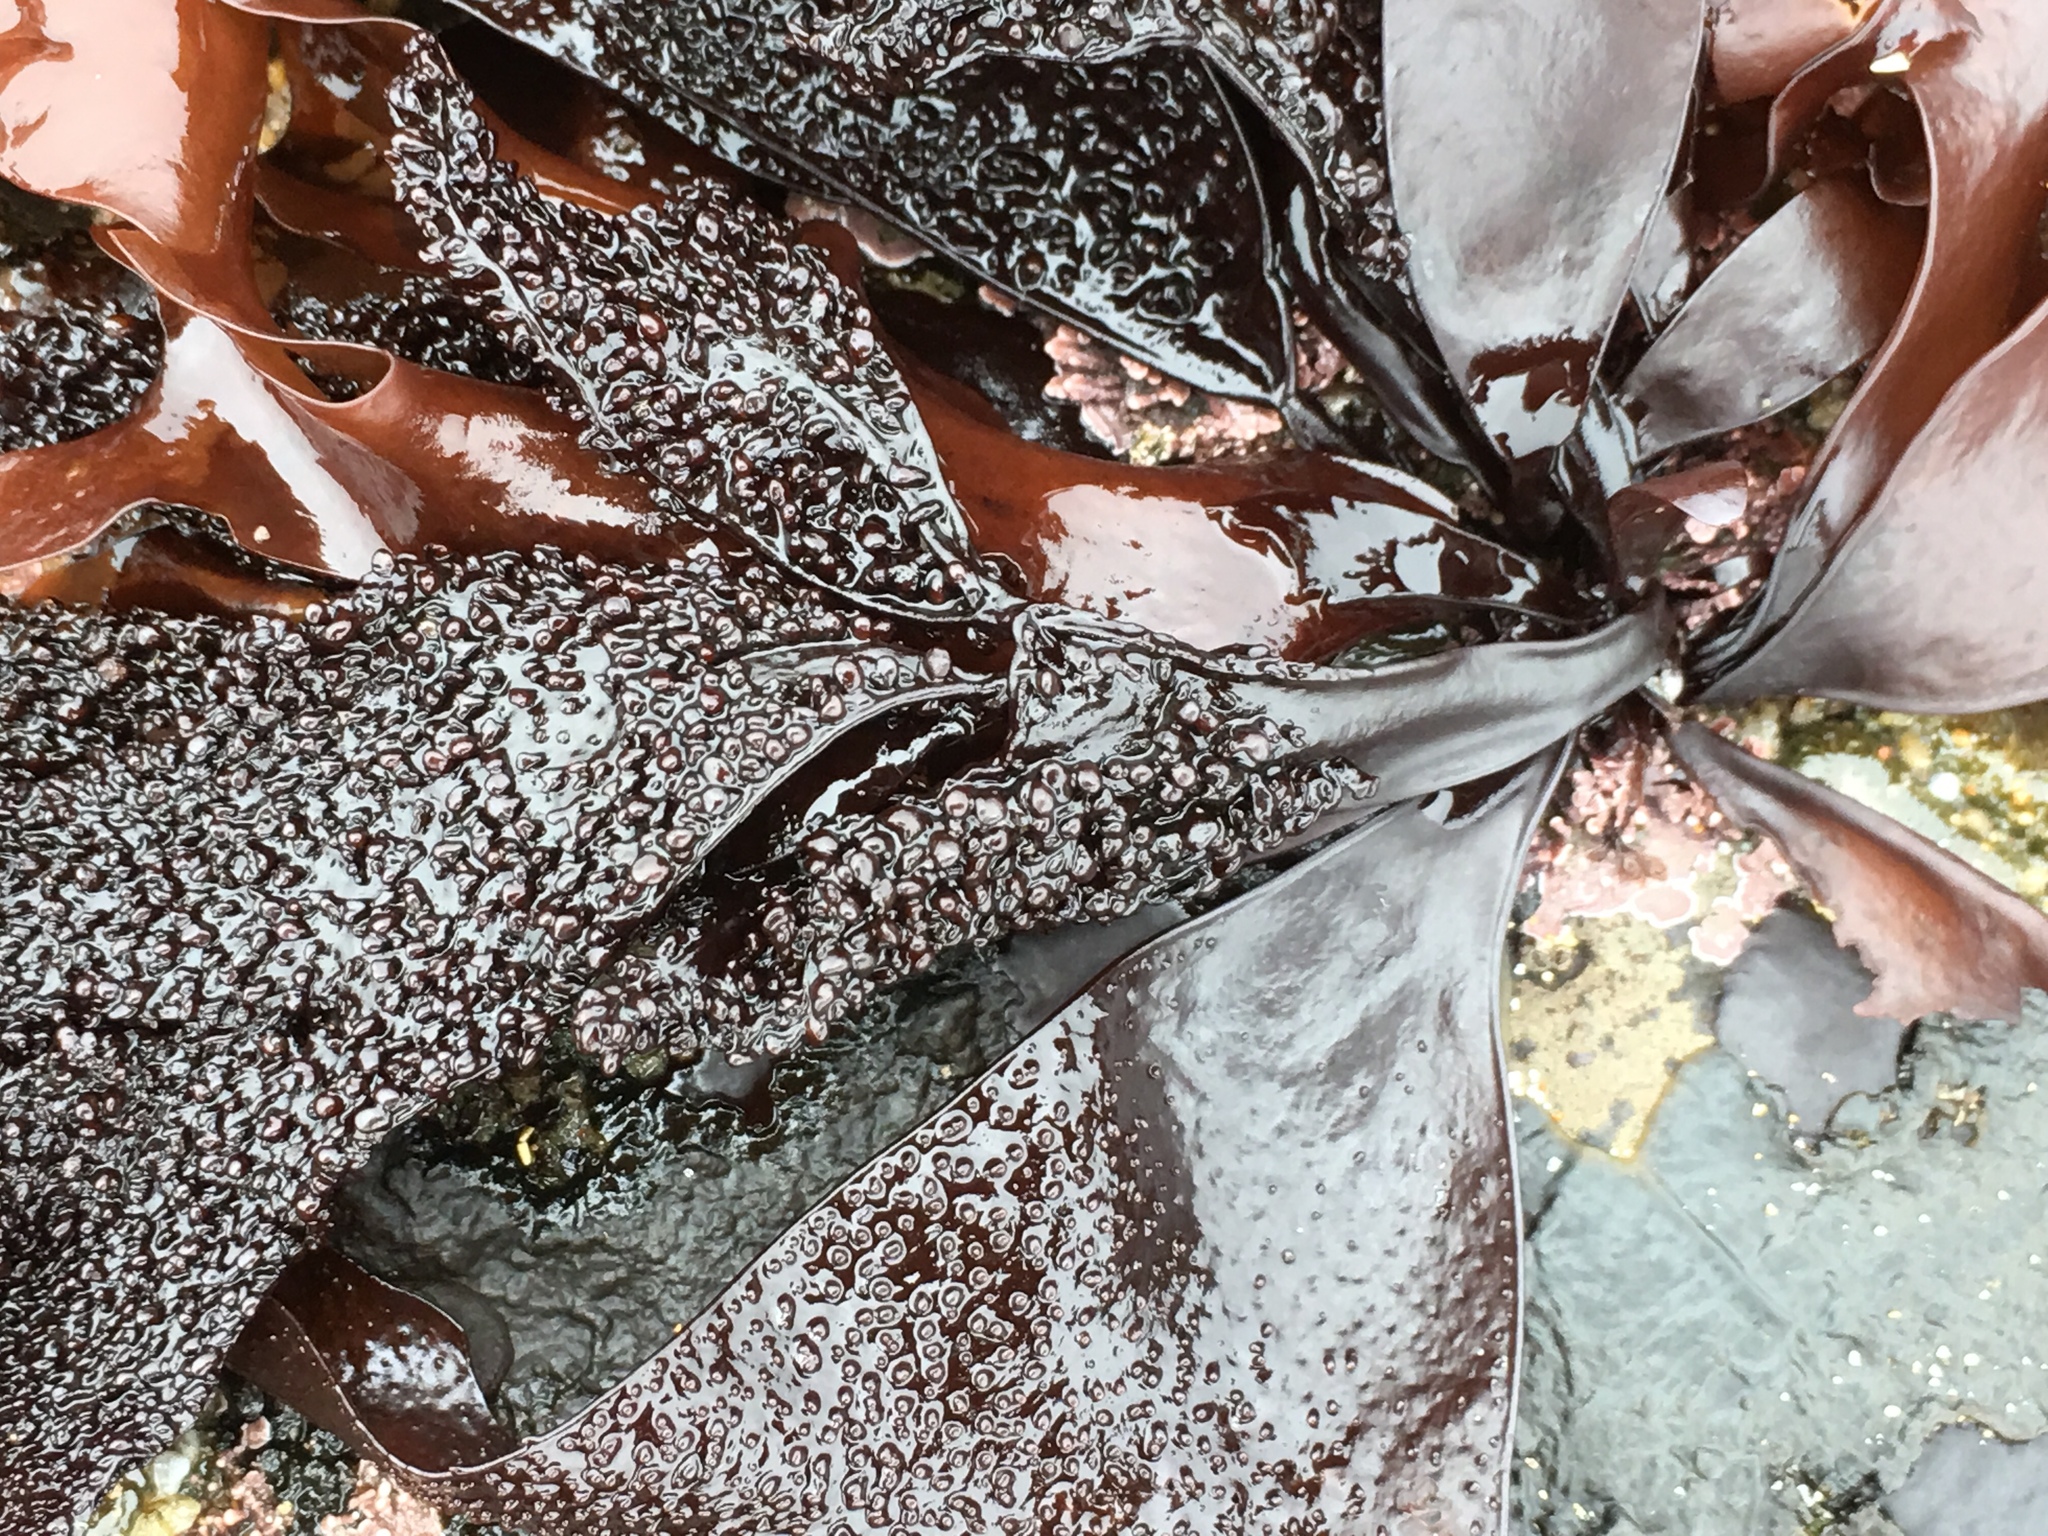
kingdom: Plantae
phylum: Rhodophyta
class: Florideophyceae
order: Gigartinales
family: Phyllophoraceae
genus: Mastocarpus
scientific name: Mastocarpus papillatus
